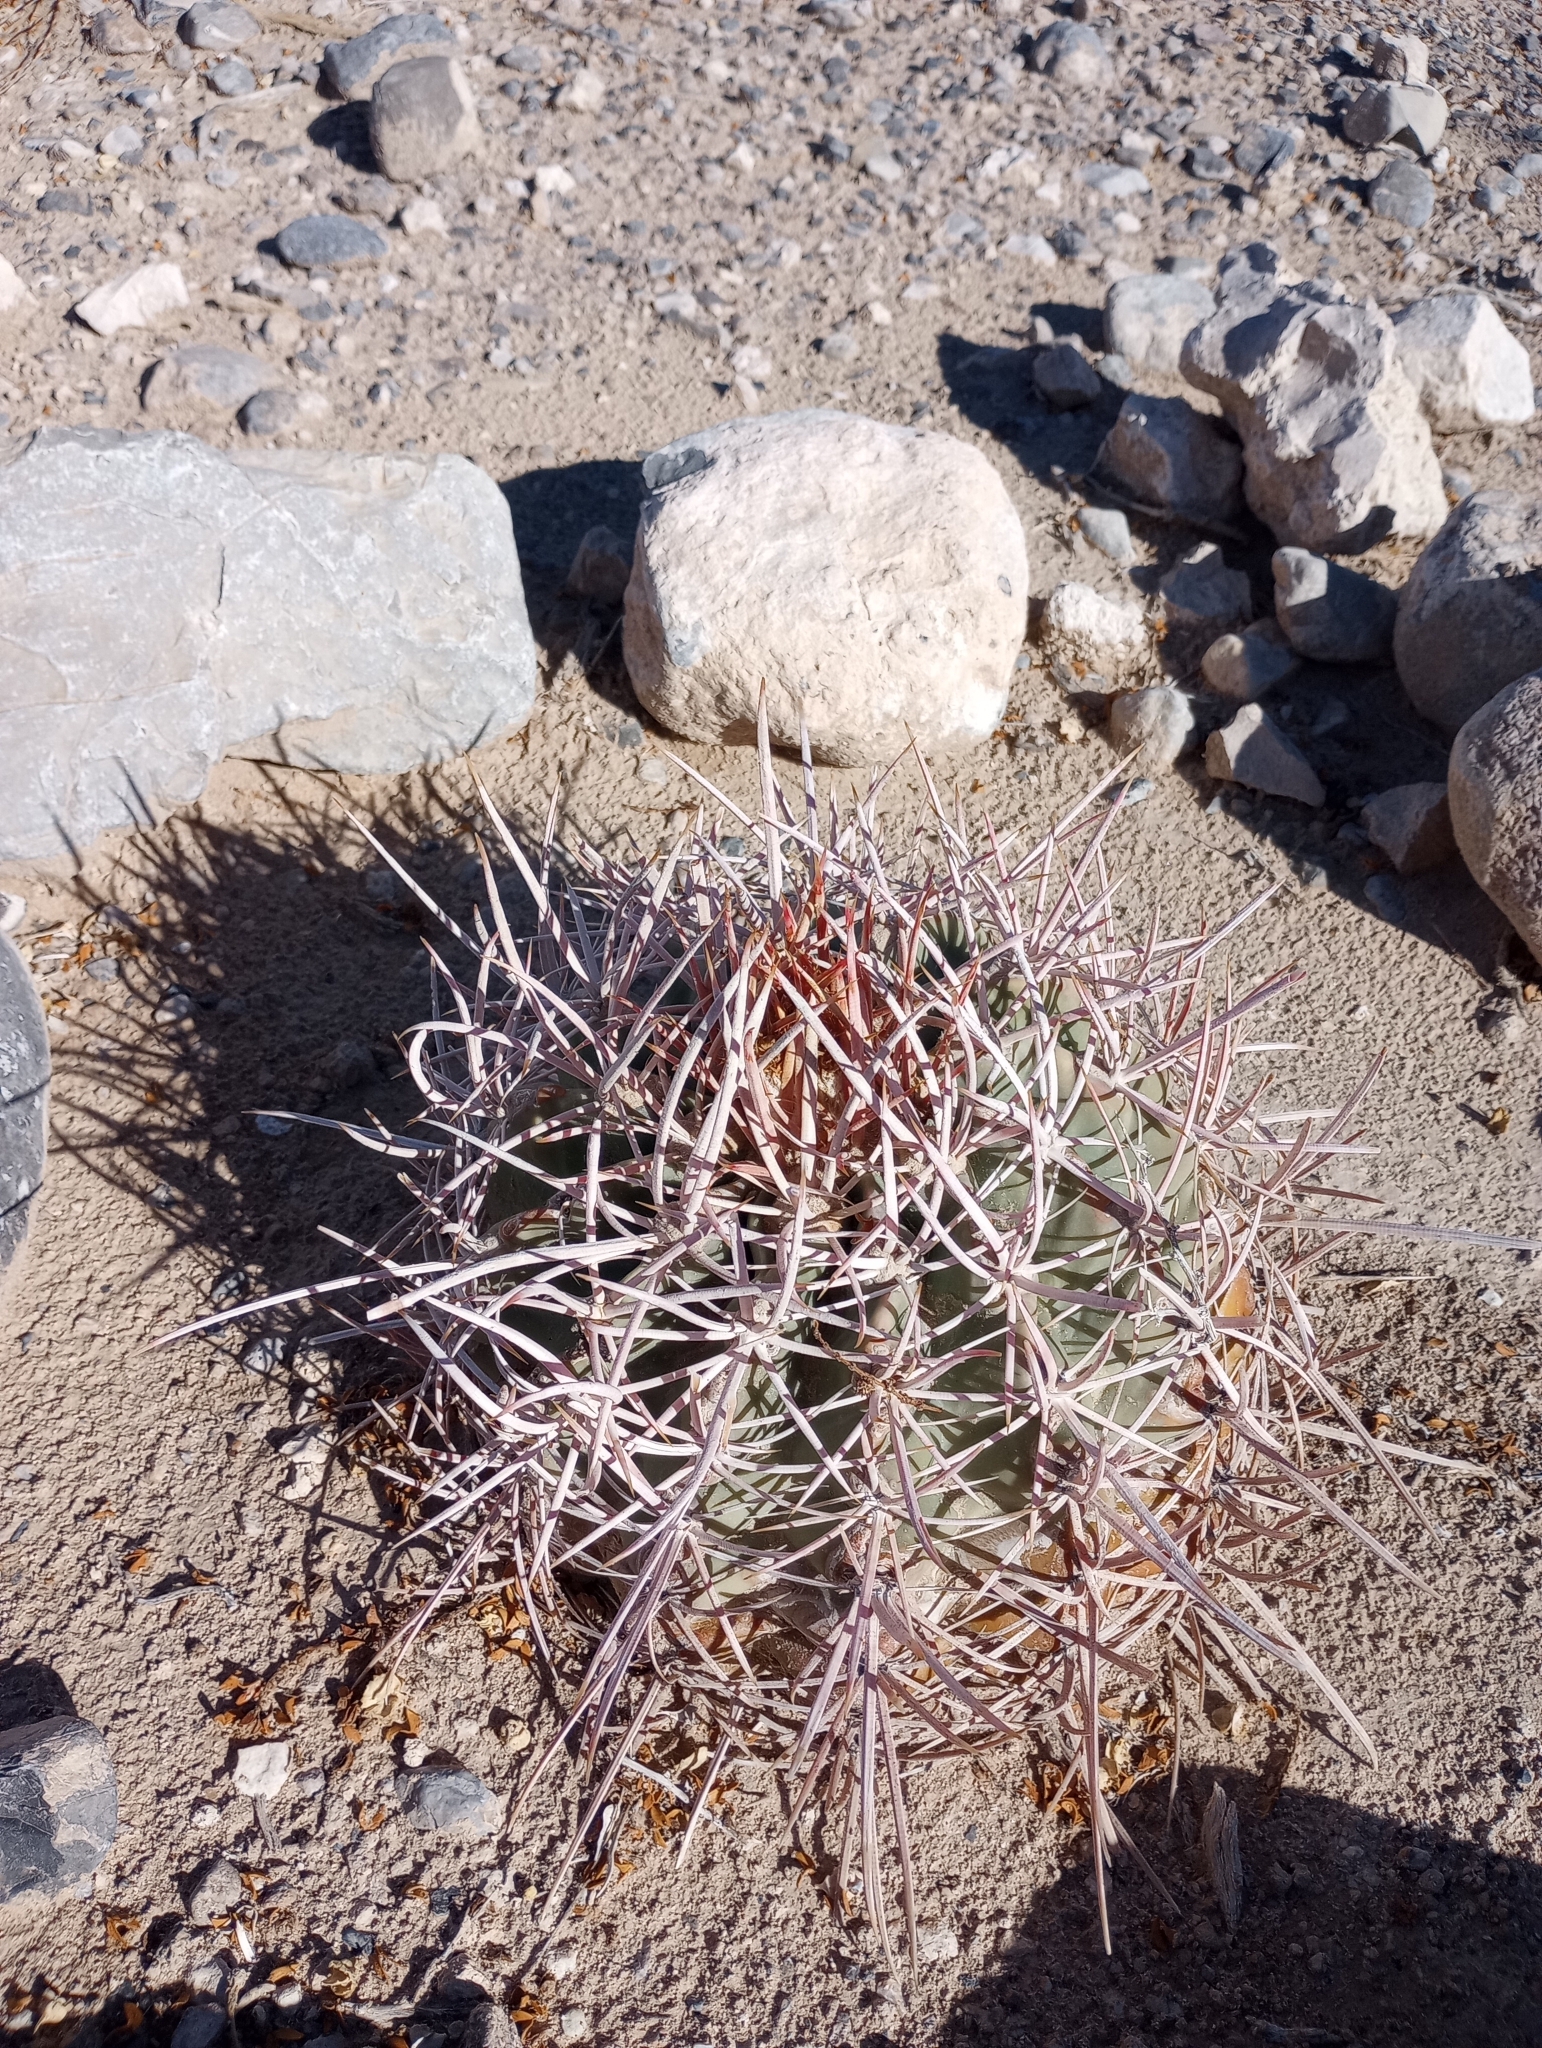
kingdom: Plantae
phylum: Tracheophyta
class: Magnoliopsida
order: Caryophyllales
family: Cactaceae
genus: Echinocactus
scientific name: Echinocactus polycephalus
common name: Cottontop cactus
